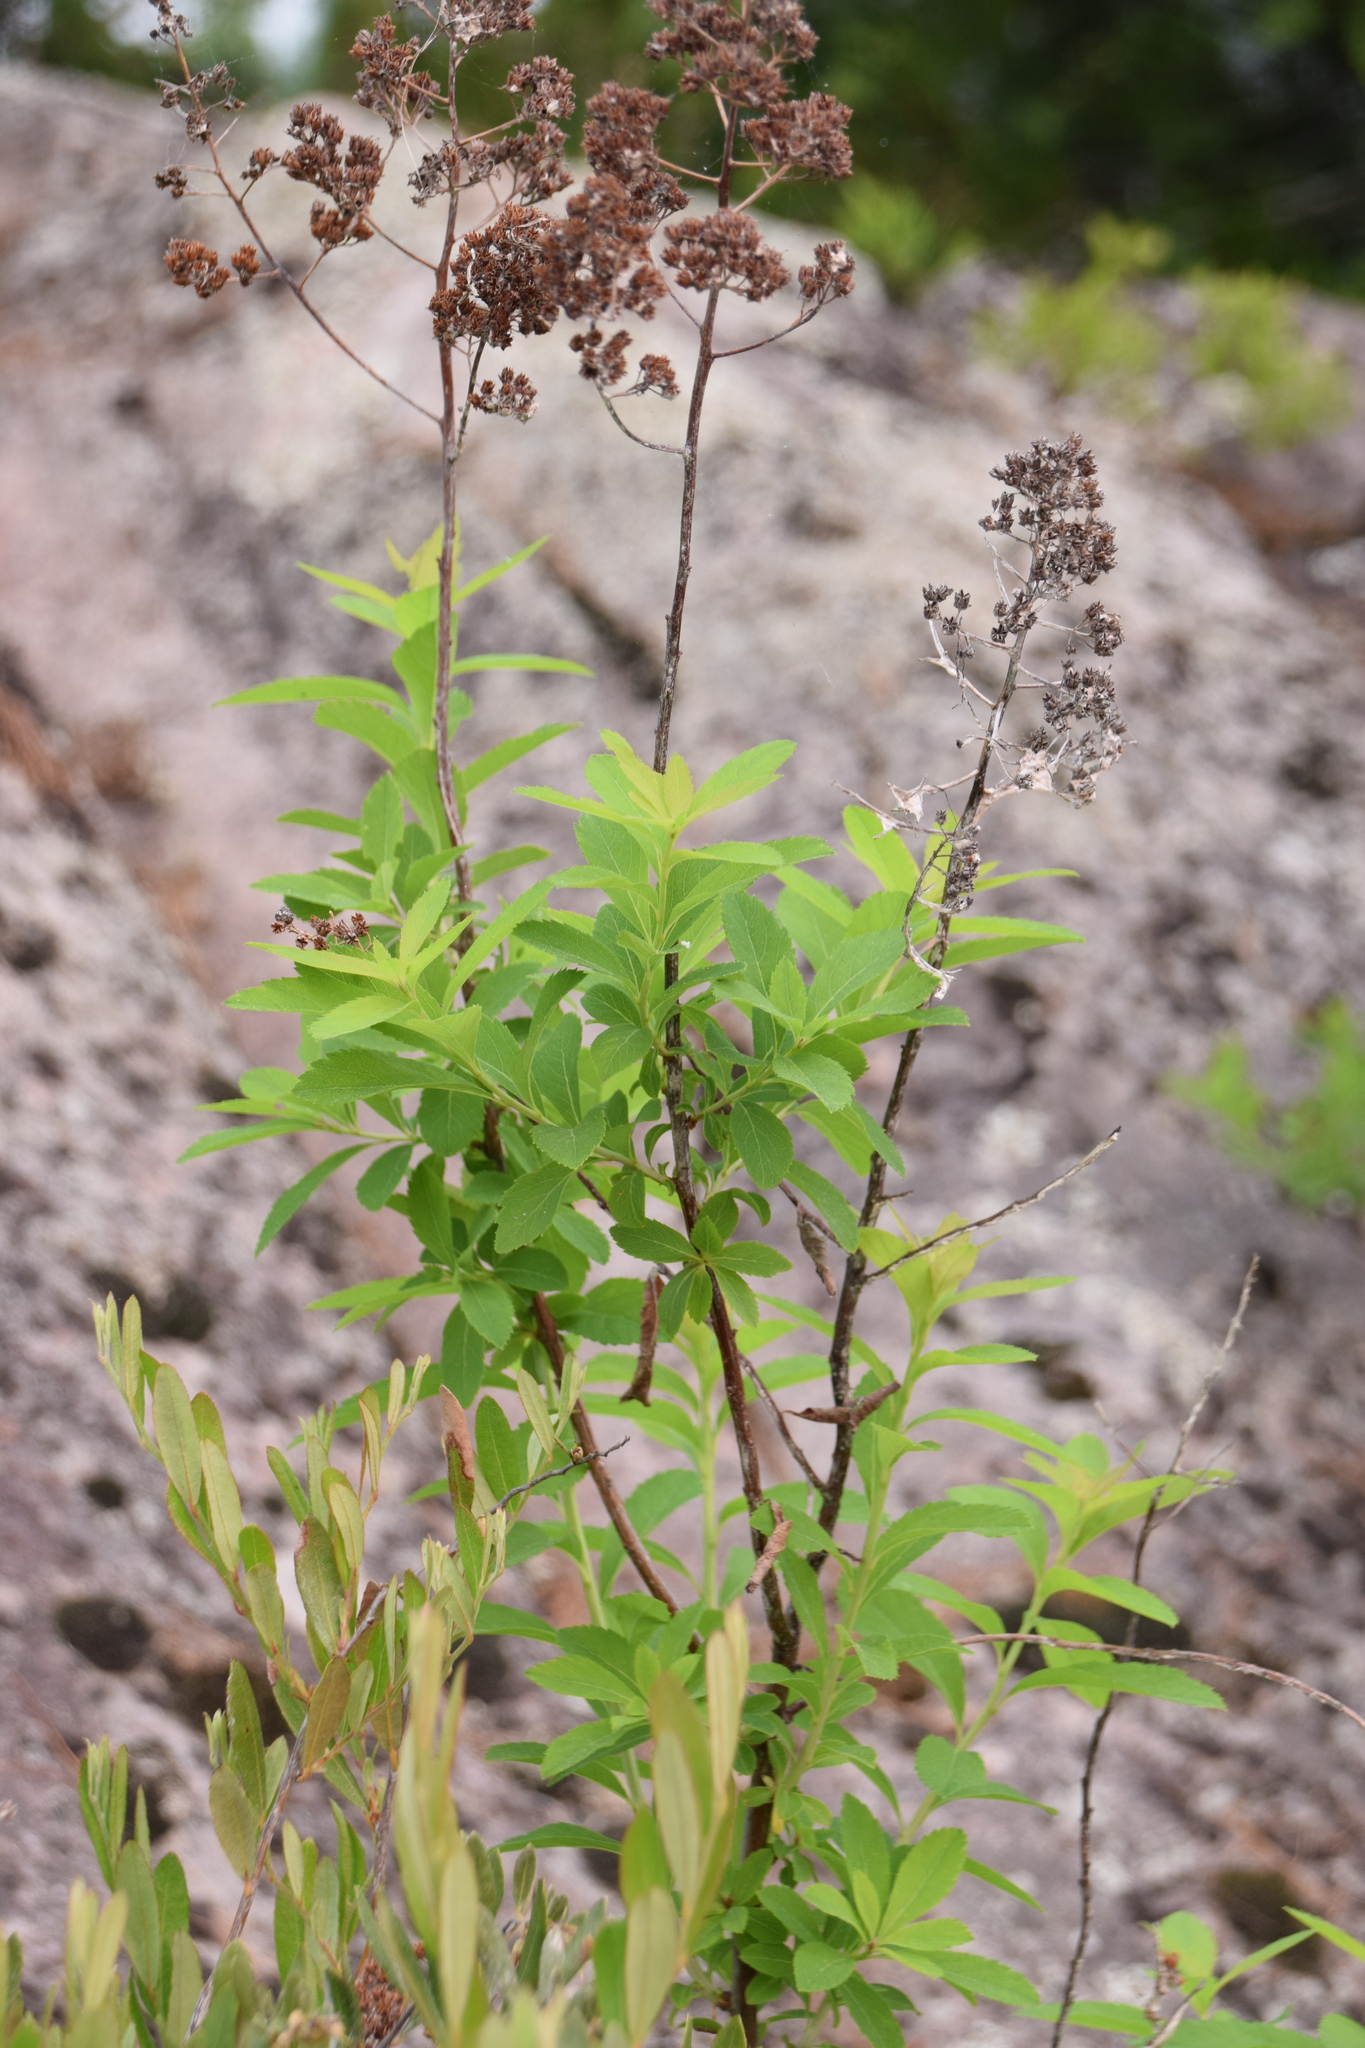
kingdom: Plantae
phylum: Tracheophyta
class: Magnoliopsida
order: Rosales
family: Rosaceae
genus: Spiraea
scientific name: Spiraea alba
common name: Pale bridewort
